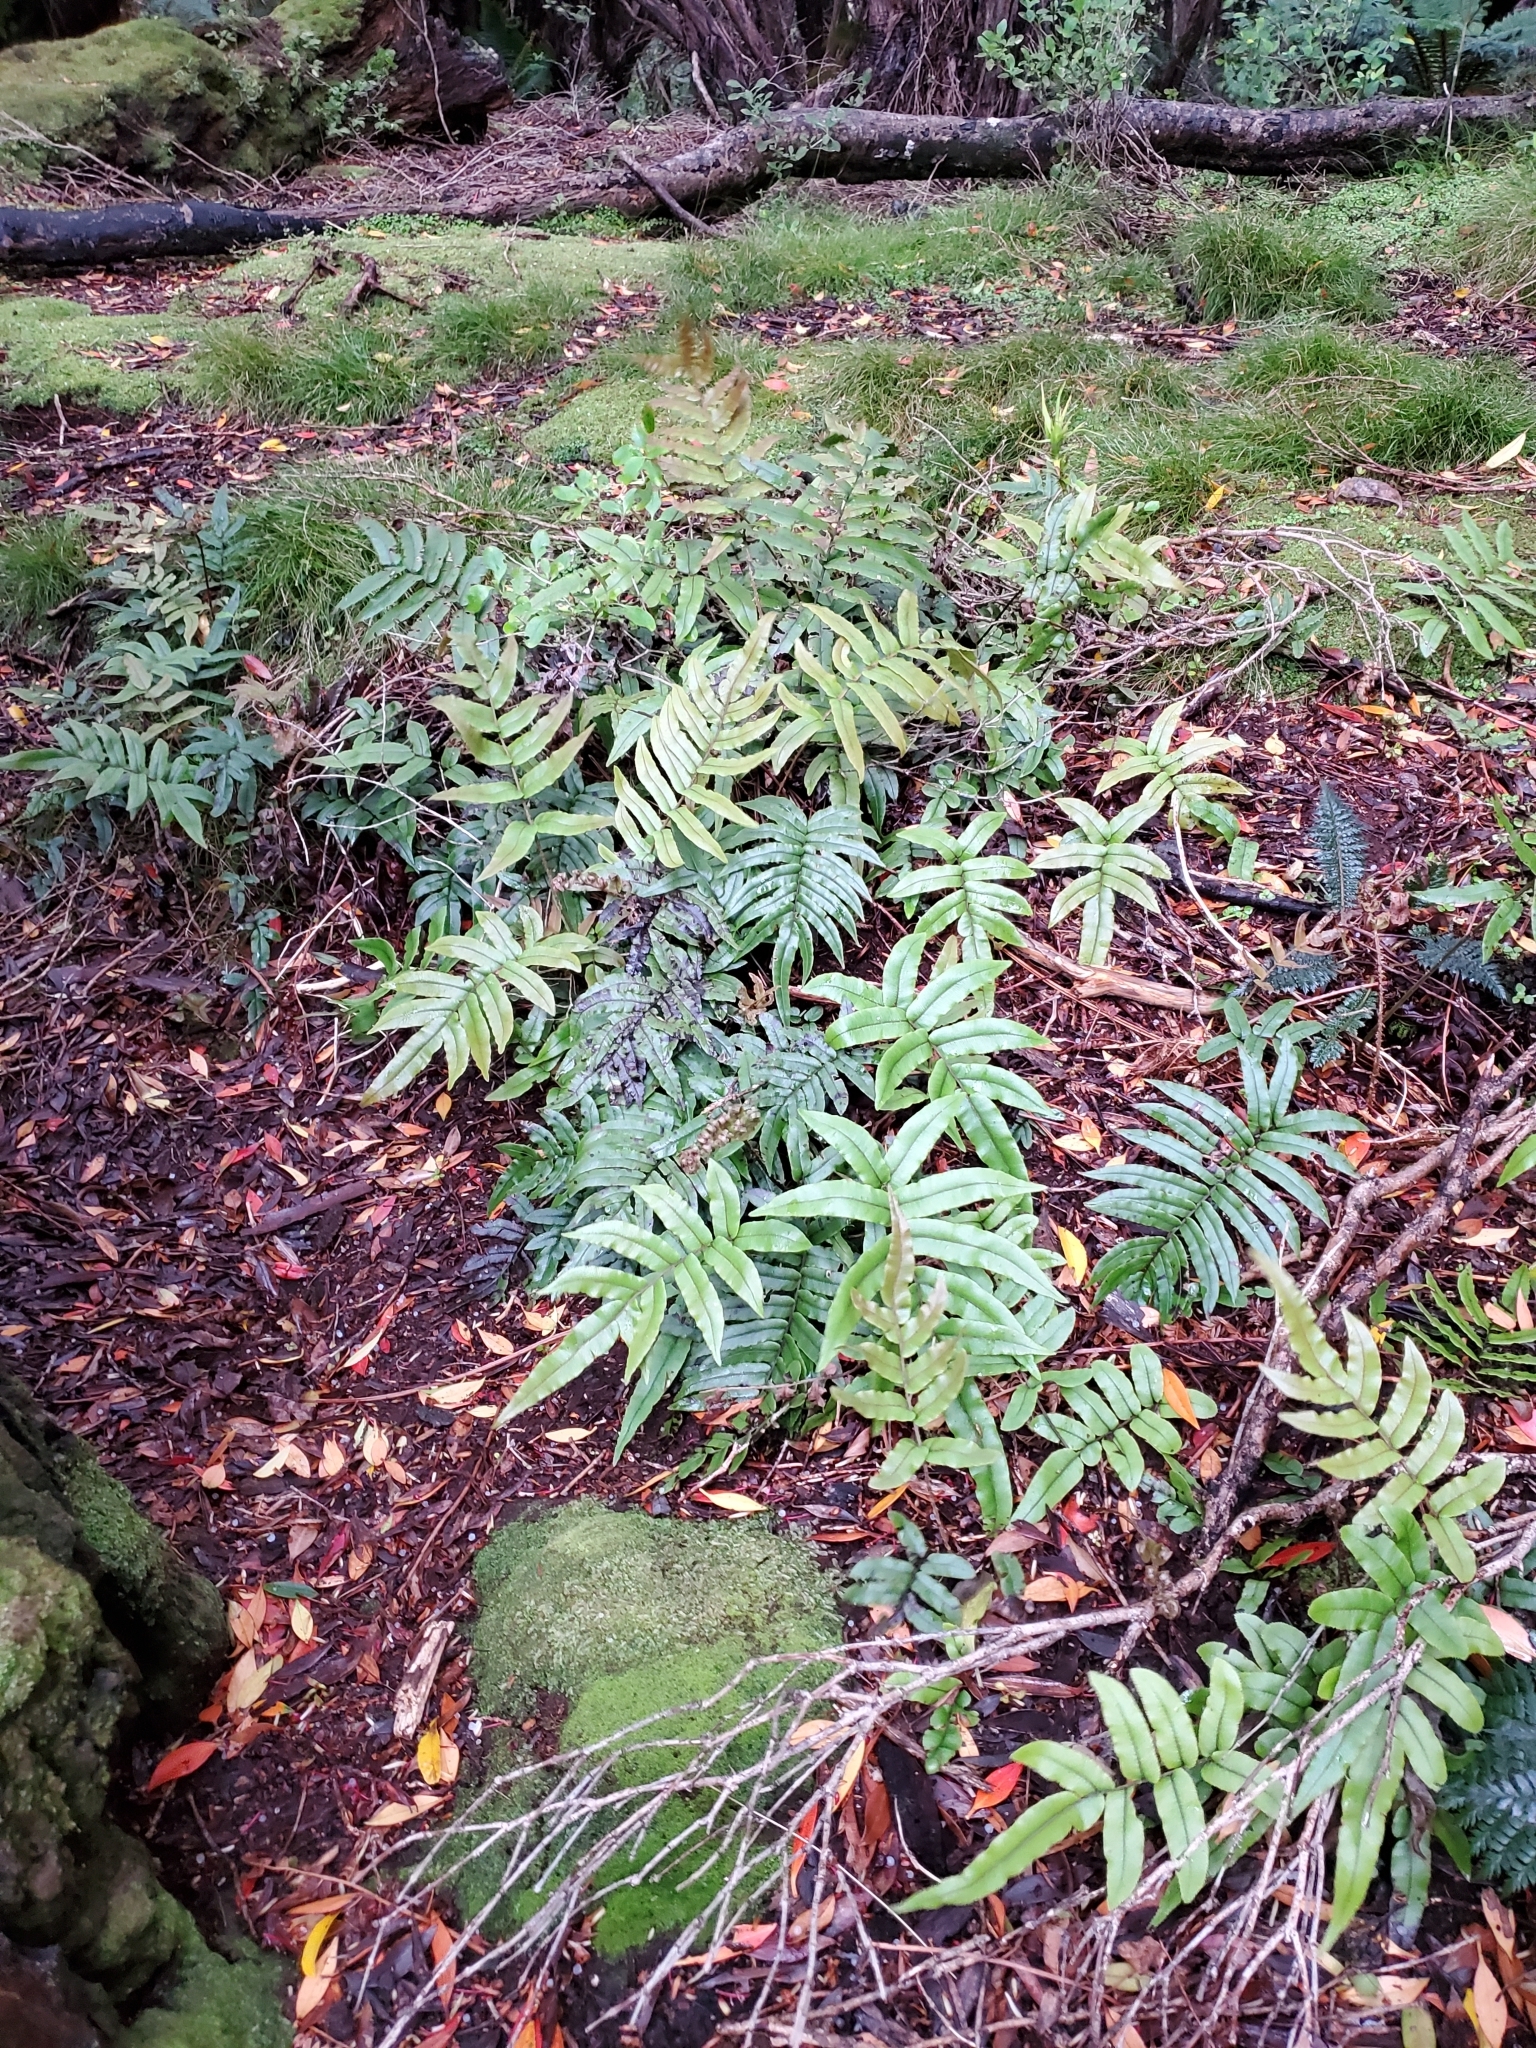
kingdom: Plantae
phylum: Tracheophyta
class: Polypodiopsida
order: Polypodiales
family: Blechnaceae
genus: Parablechnum
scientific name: Parablechnum procerum
